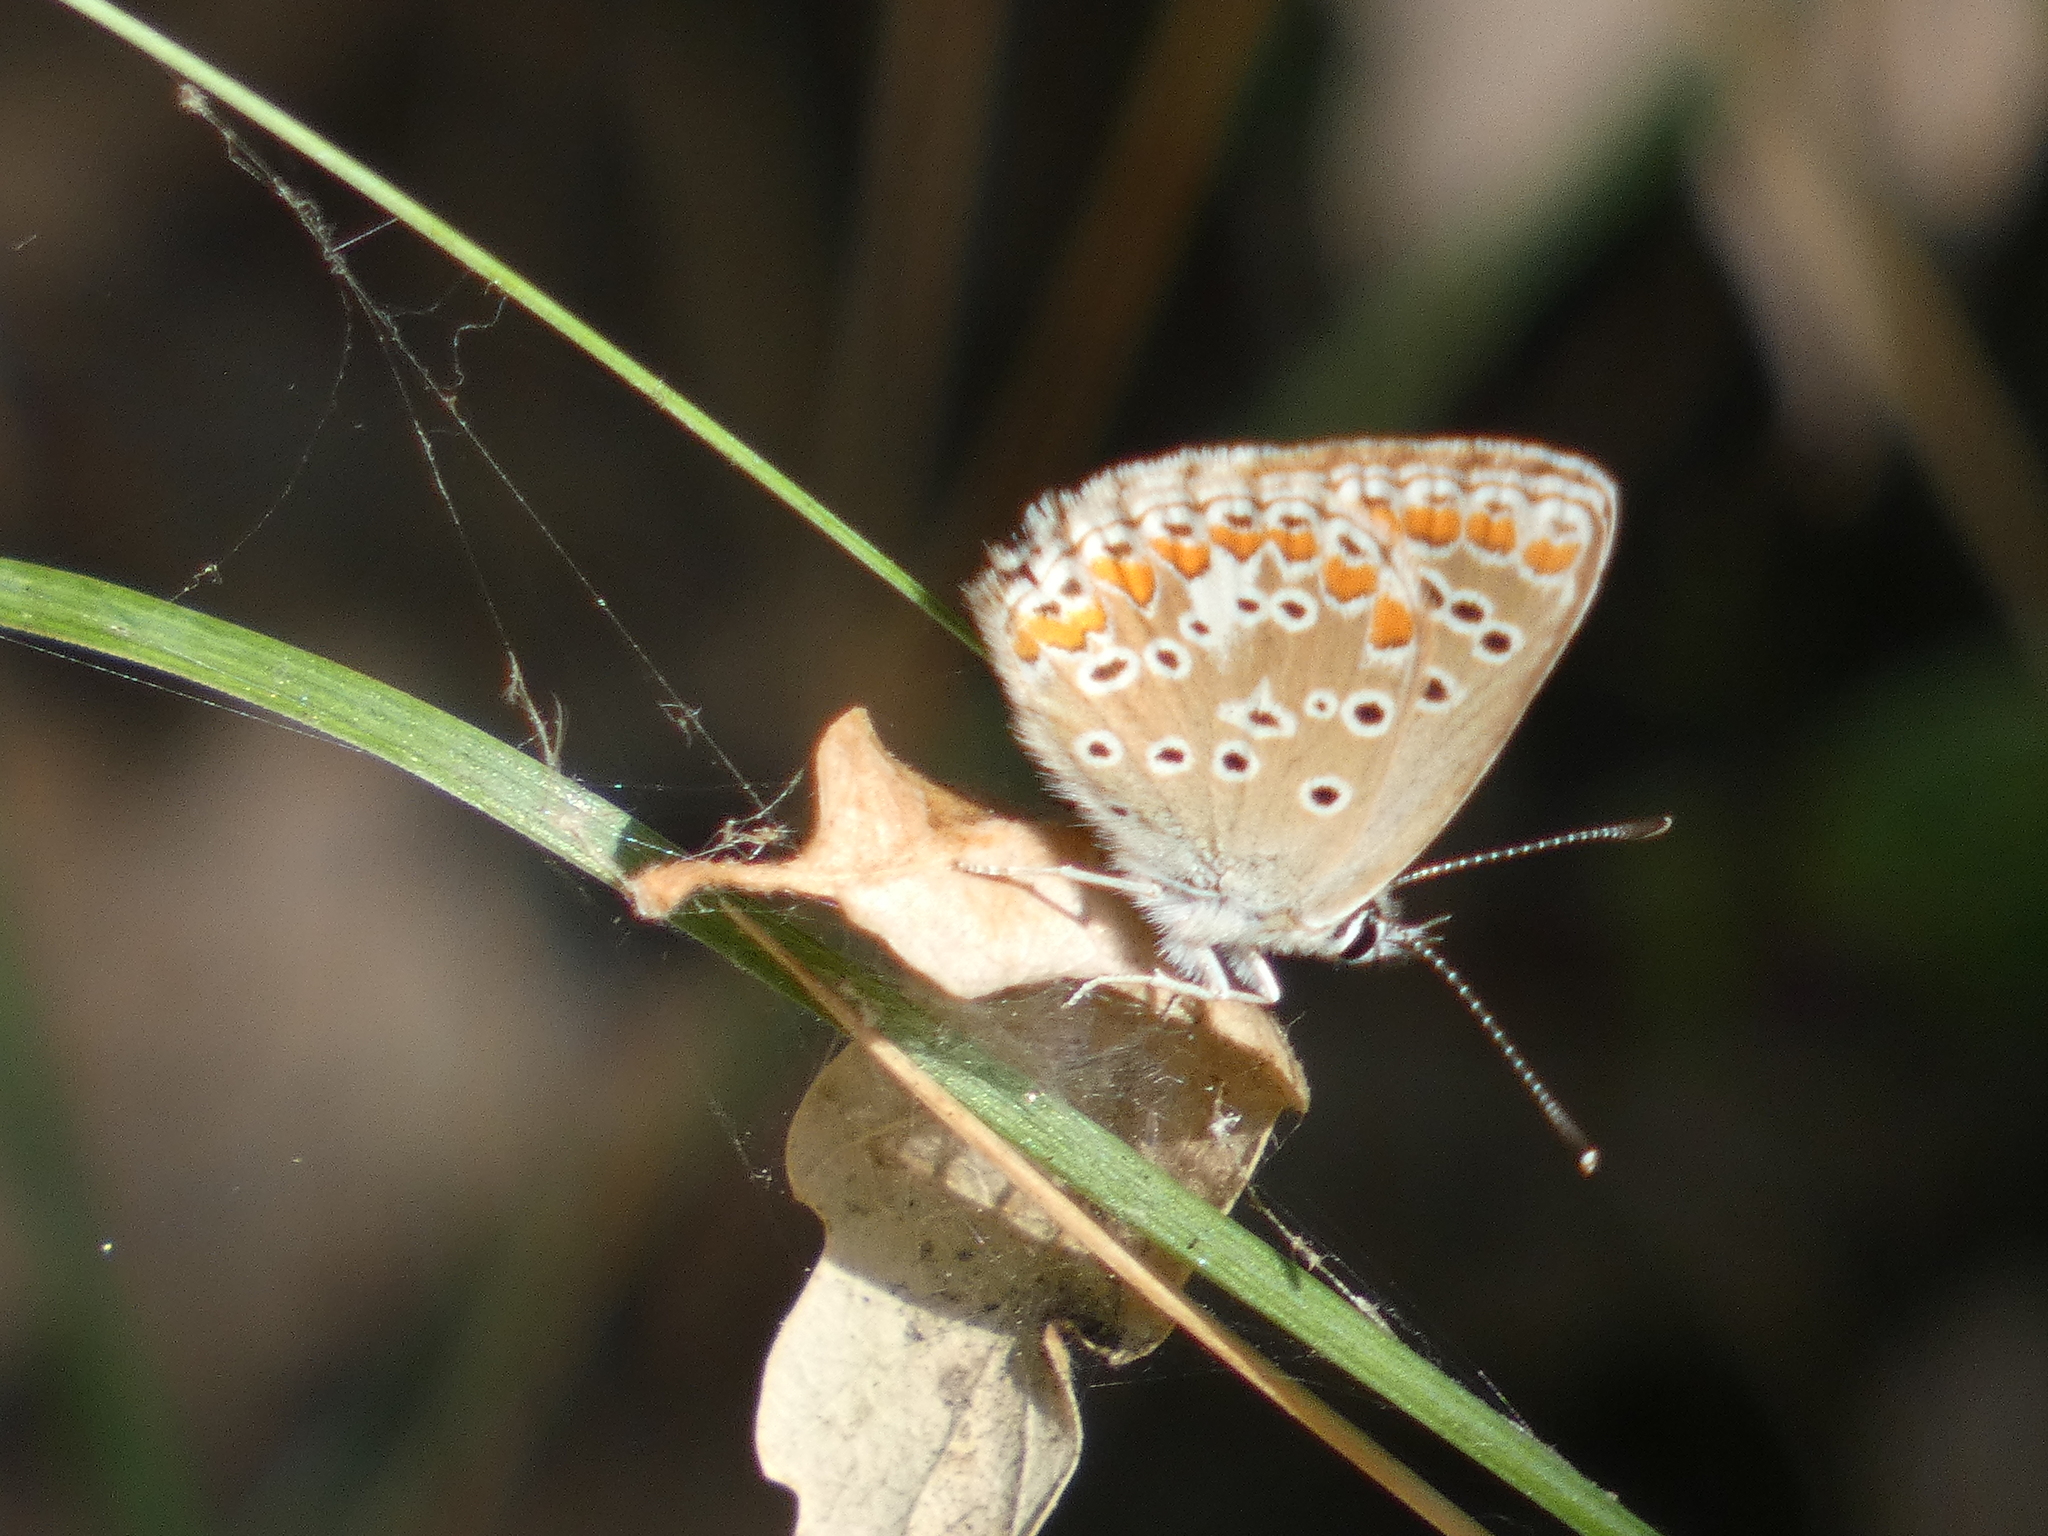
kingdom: Animalia
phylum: Arthropoda
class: Insecta
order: Lepidoptera
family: Lycaenidae
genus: Aricia
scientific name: Aricia agestis
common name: Brown argus
